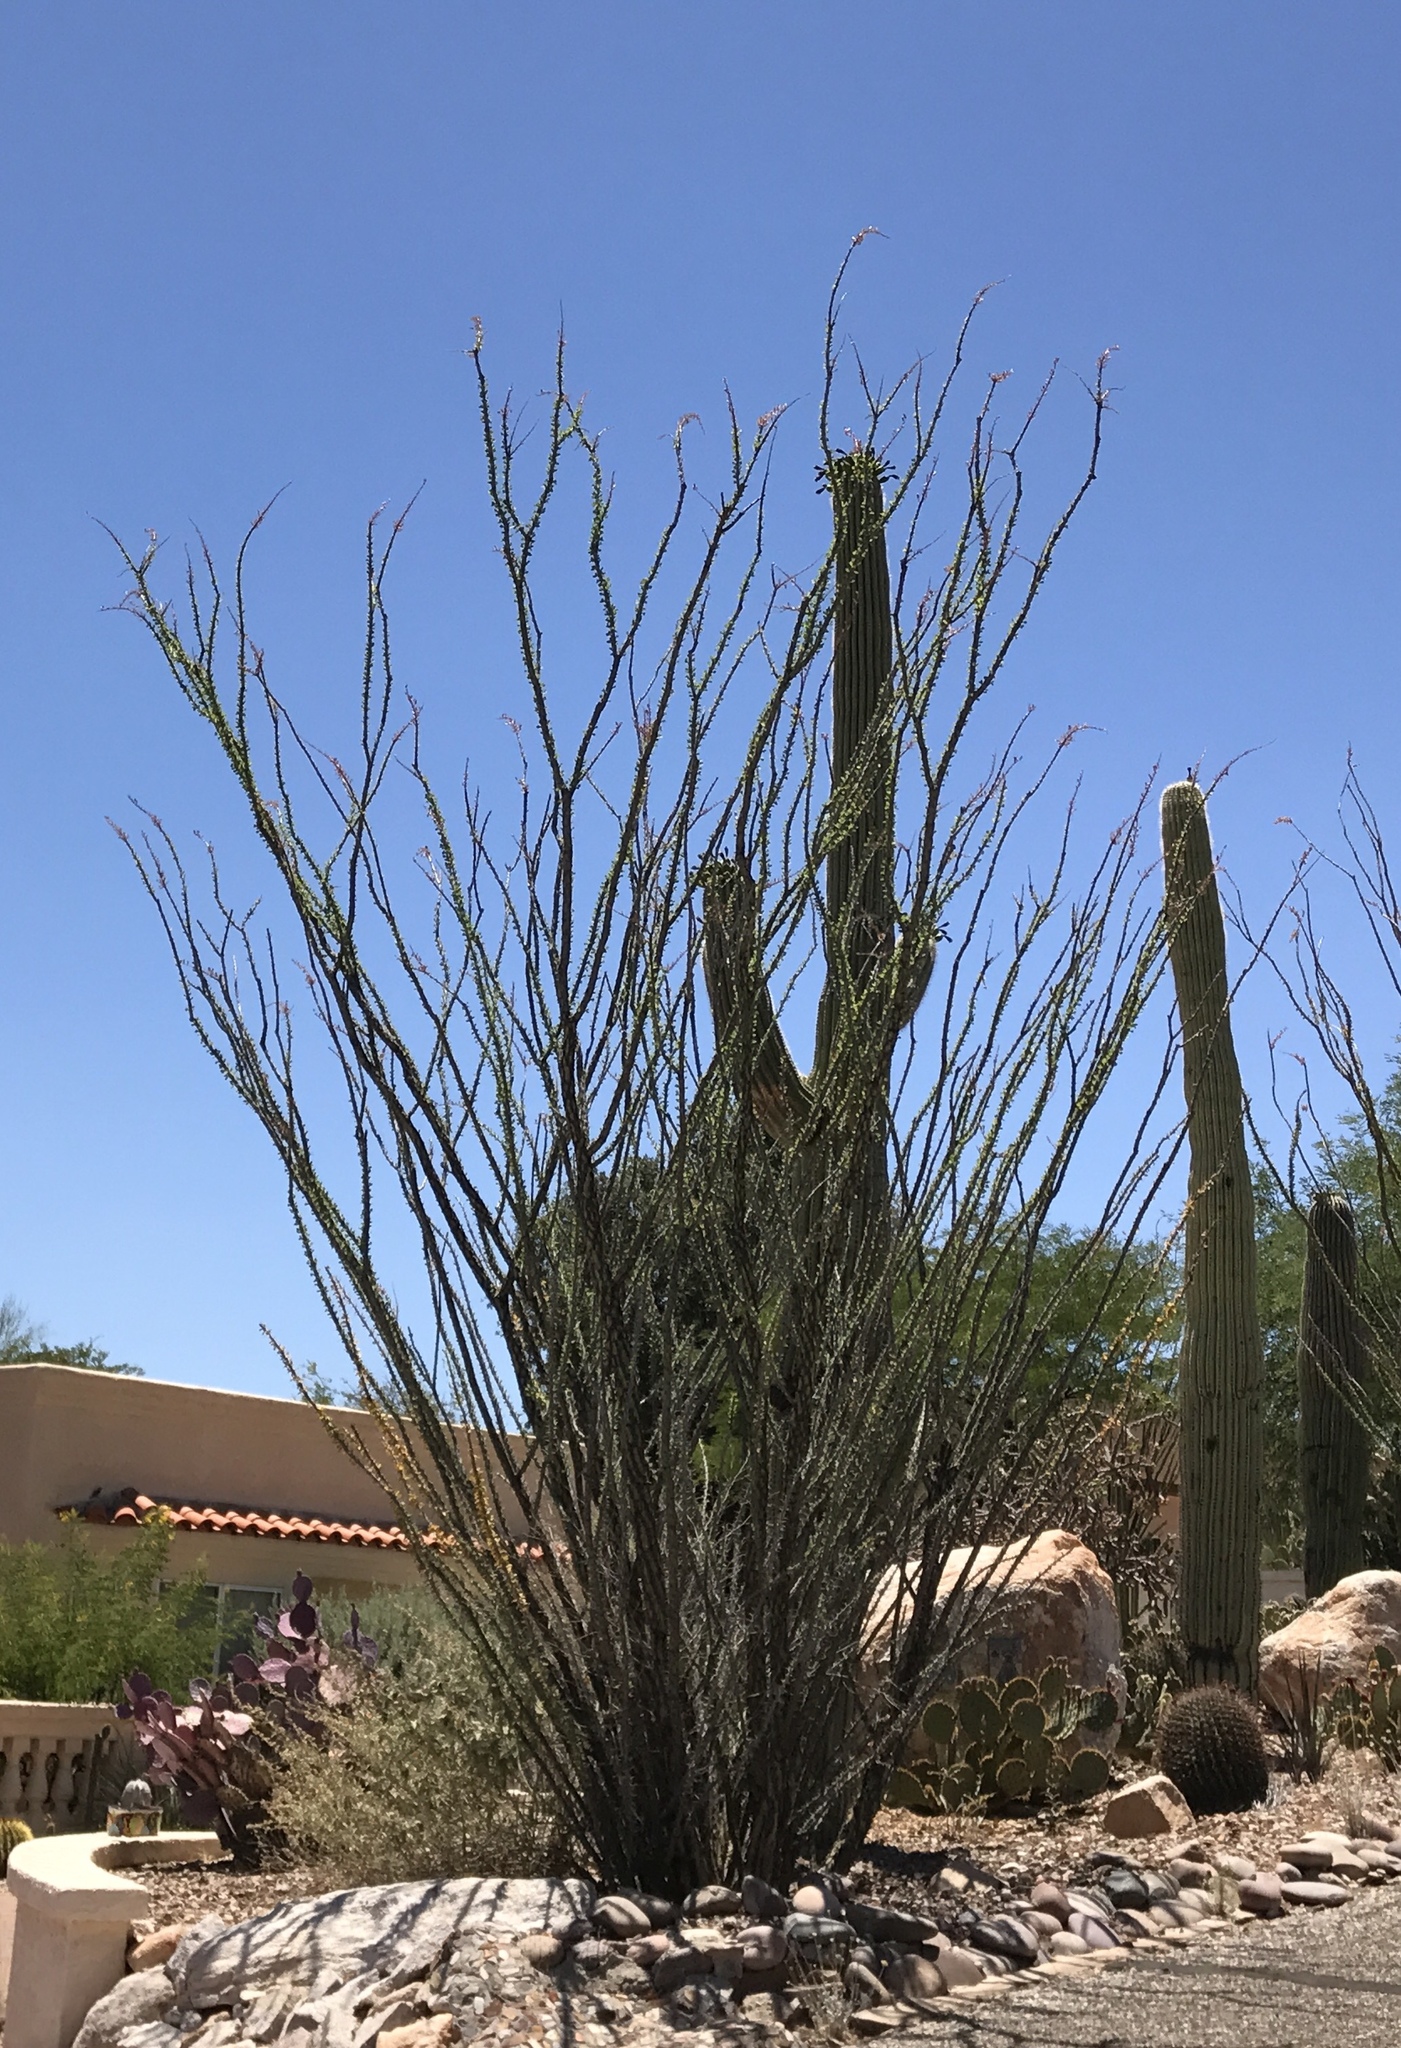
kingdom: Plantae
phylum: Tracheophyta
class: Magnoliopsida
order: Ericales
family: Fouquieriaceae
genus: Fouquieria
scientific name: Fouquieria splendens
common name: Vine-cactus
